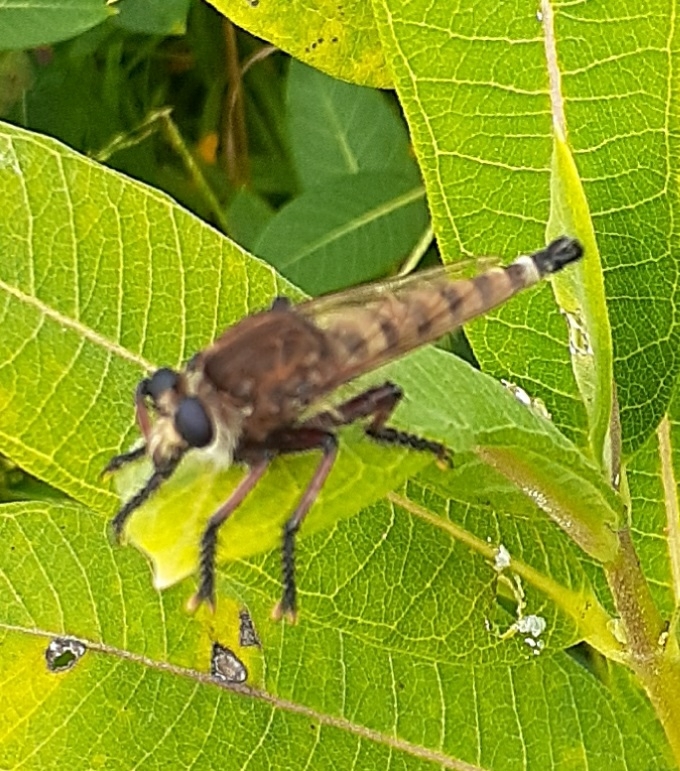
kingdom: Animalia
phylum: Arthropoda
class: Insecta
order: Diptera
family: Asilidae
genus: Promachus
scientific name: Promachus hinei
